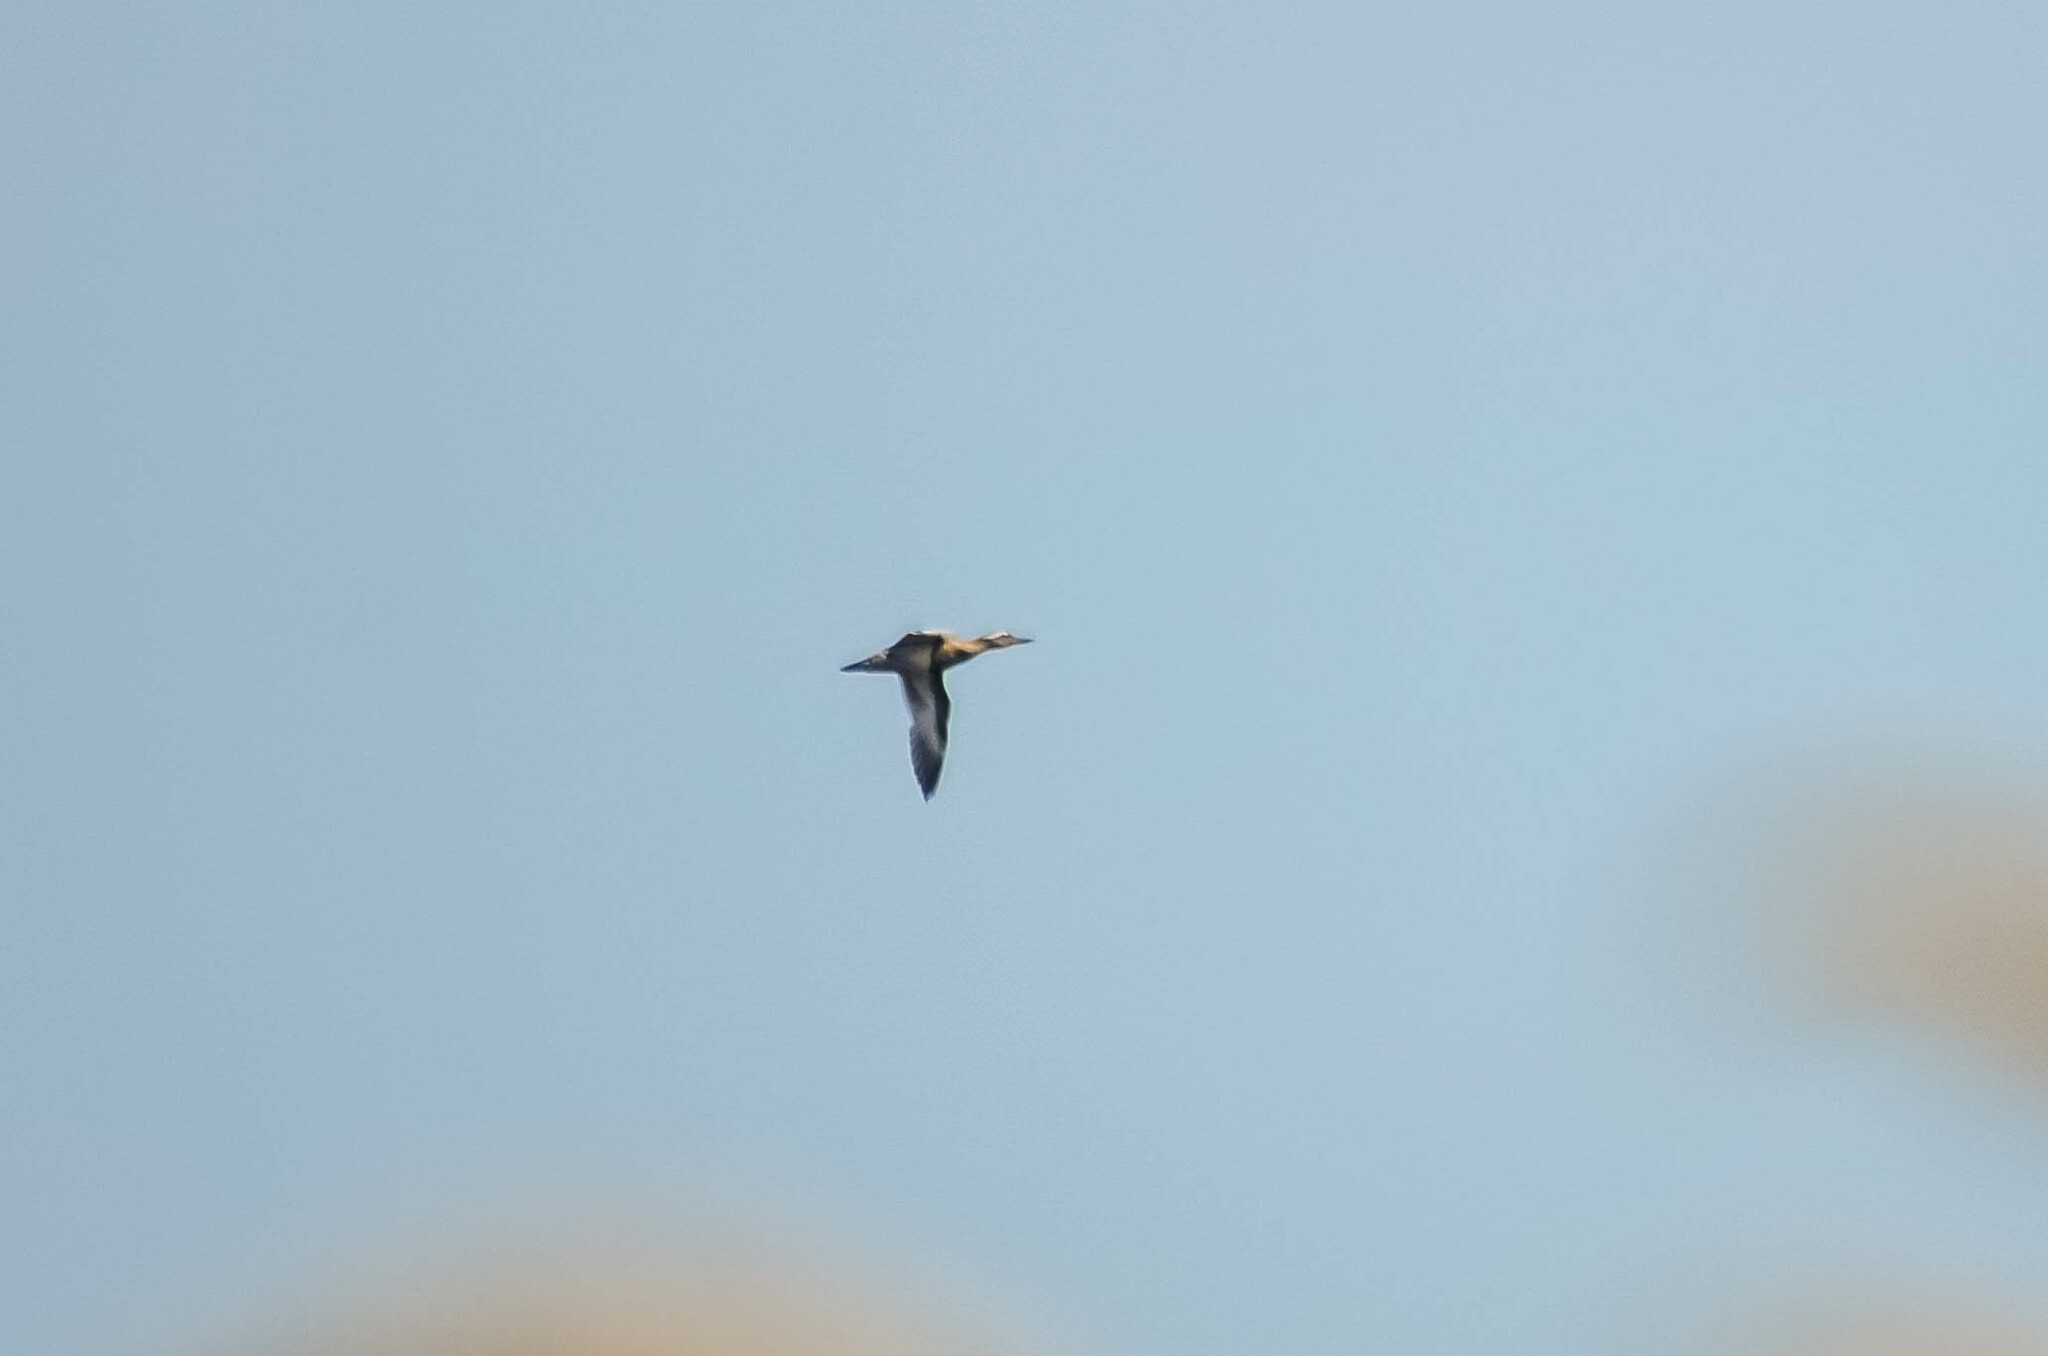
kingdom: Animalia
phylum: Chordata
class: Aves
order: Anseriformes
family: Anatidae
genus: Spatula
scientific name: Spatula querquedula
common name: Garganey
